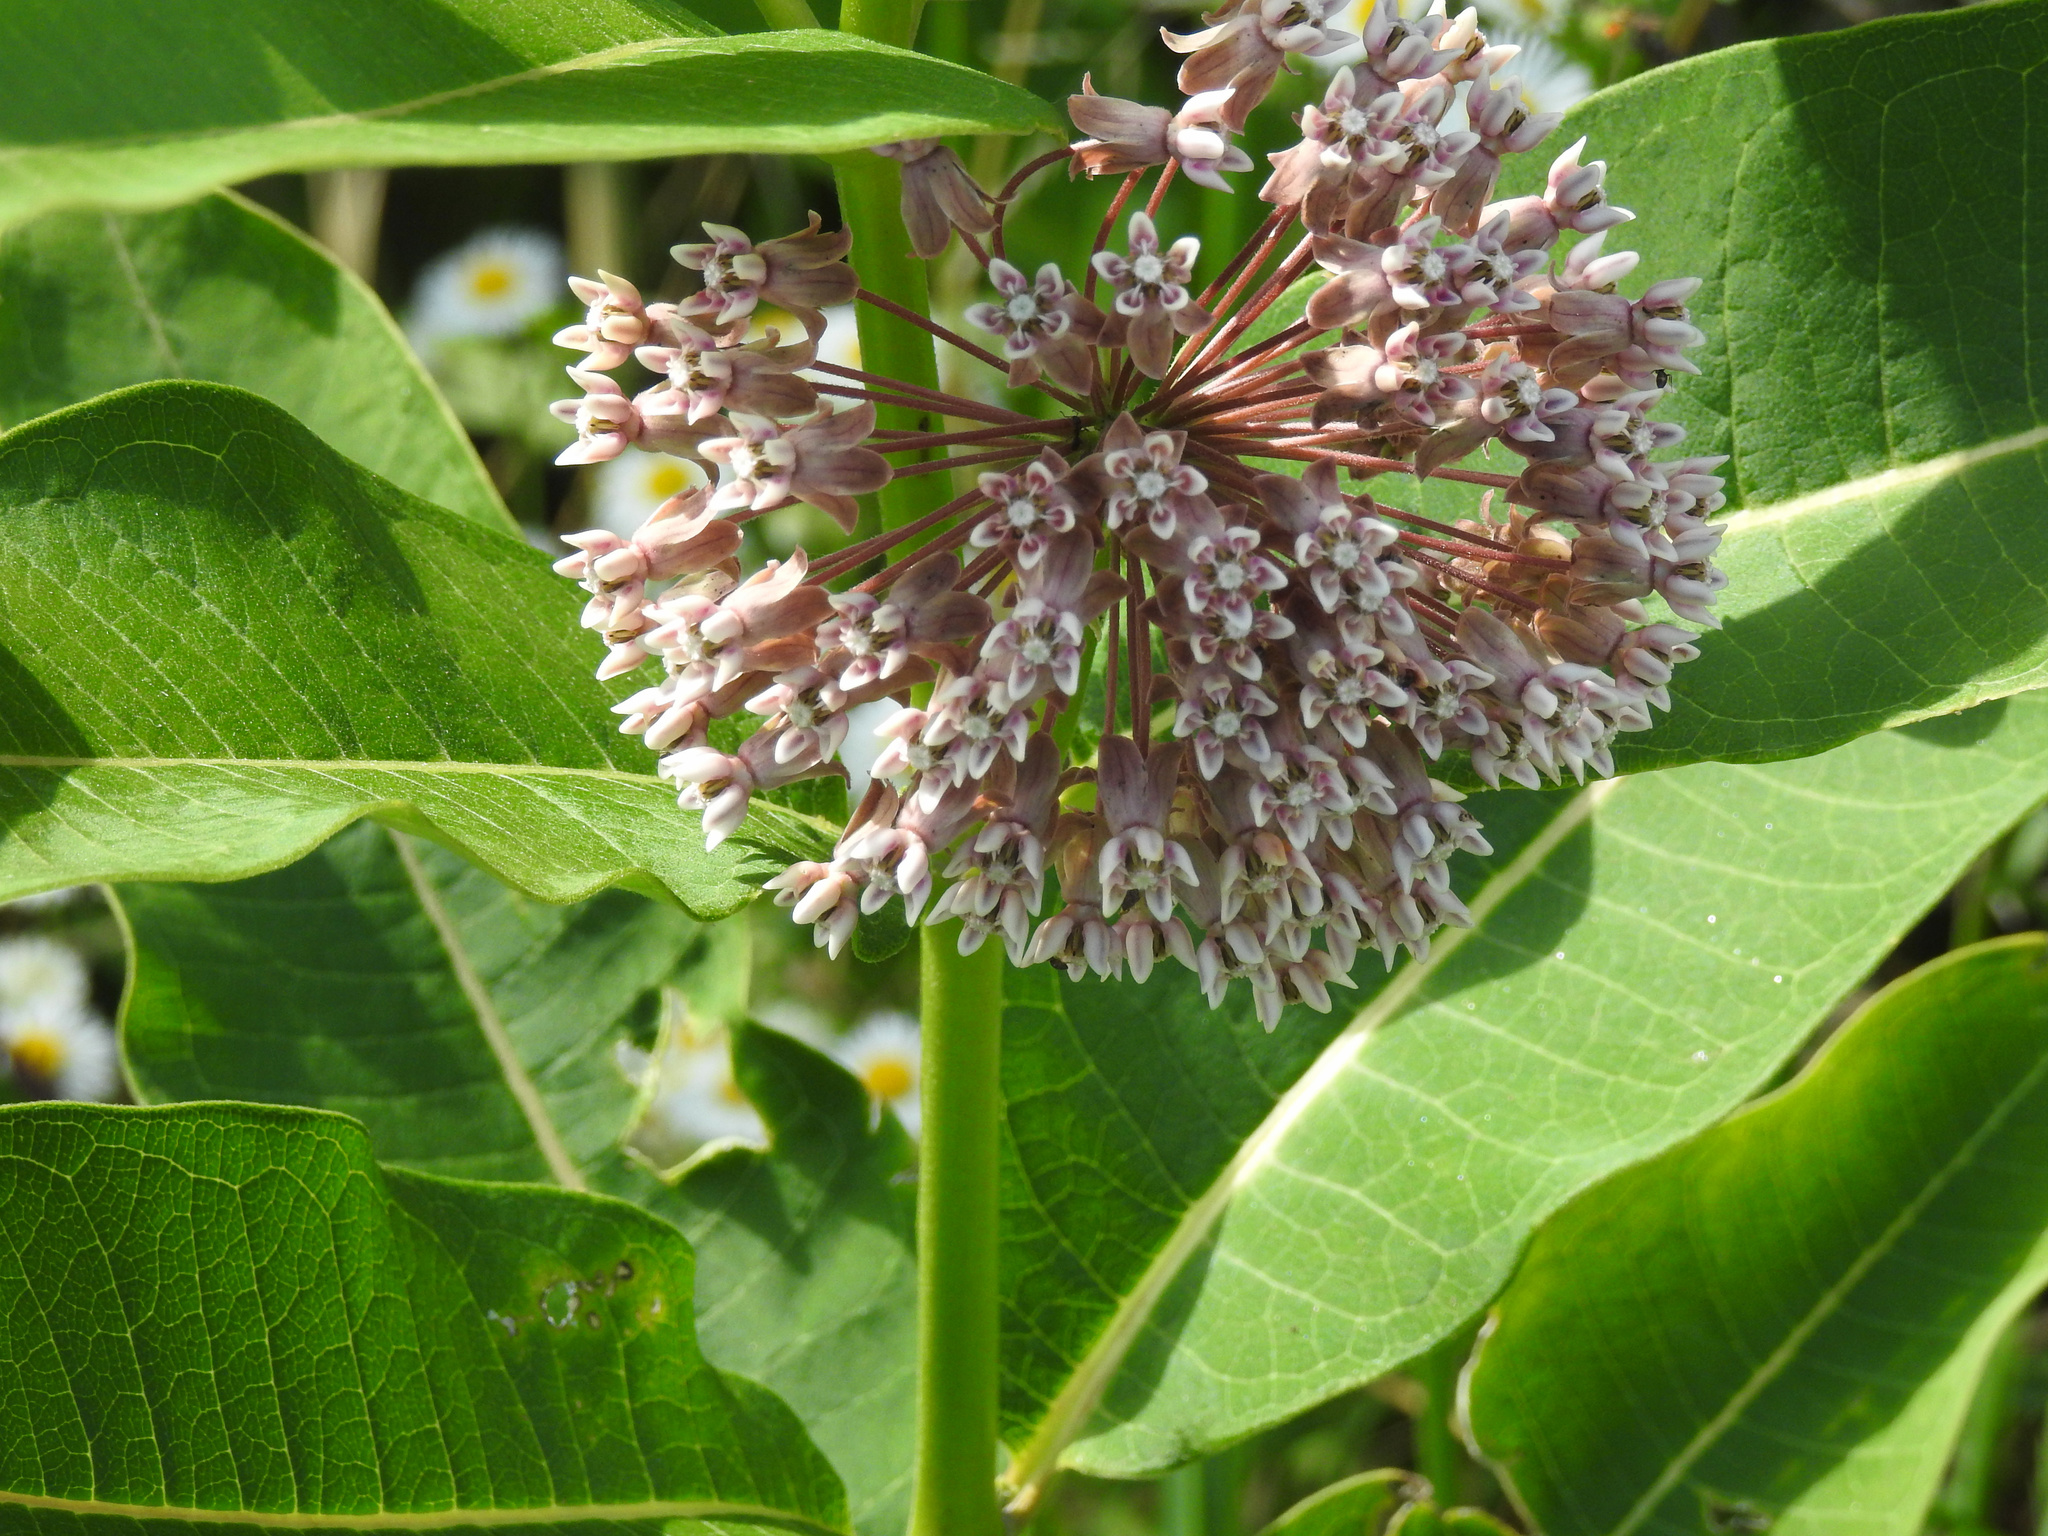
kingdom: Plantae
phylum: Tracheophyta
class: Magnoliopsida
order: Gentianales
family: Apocynaceae
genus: Asclepias
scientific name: Asclepias syriaca
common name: Common milkweed
